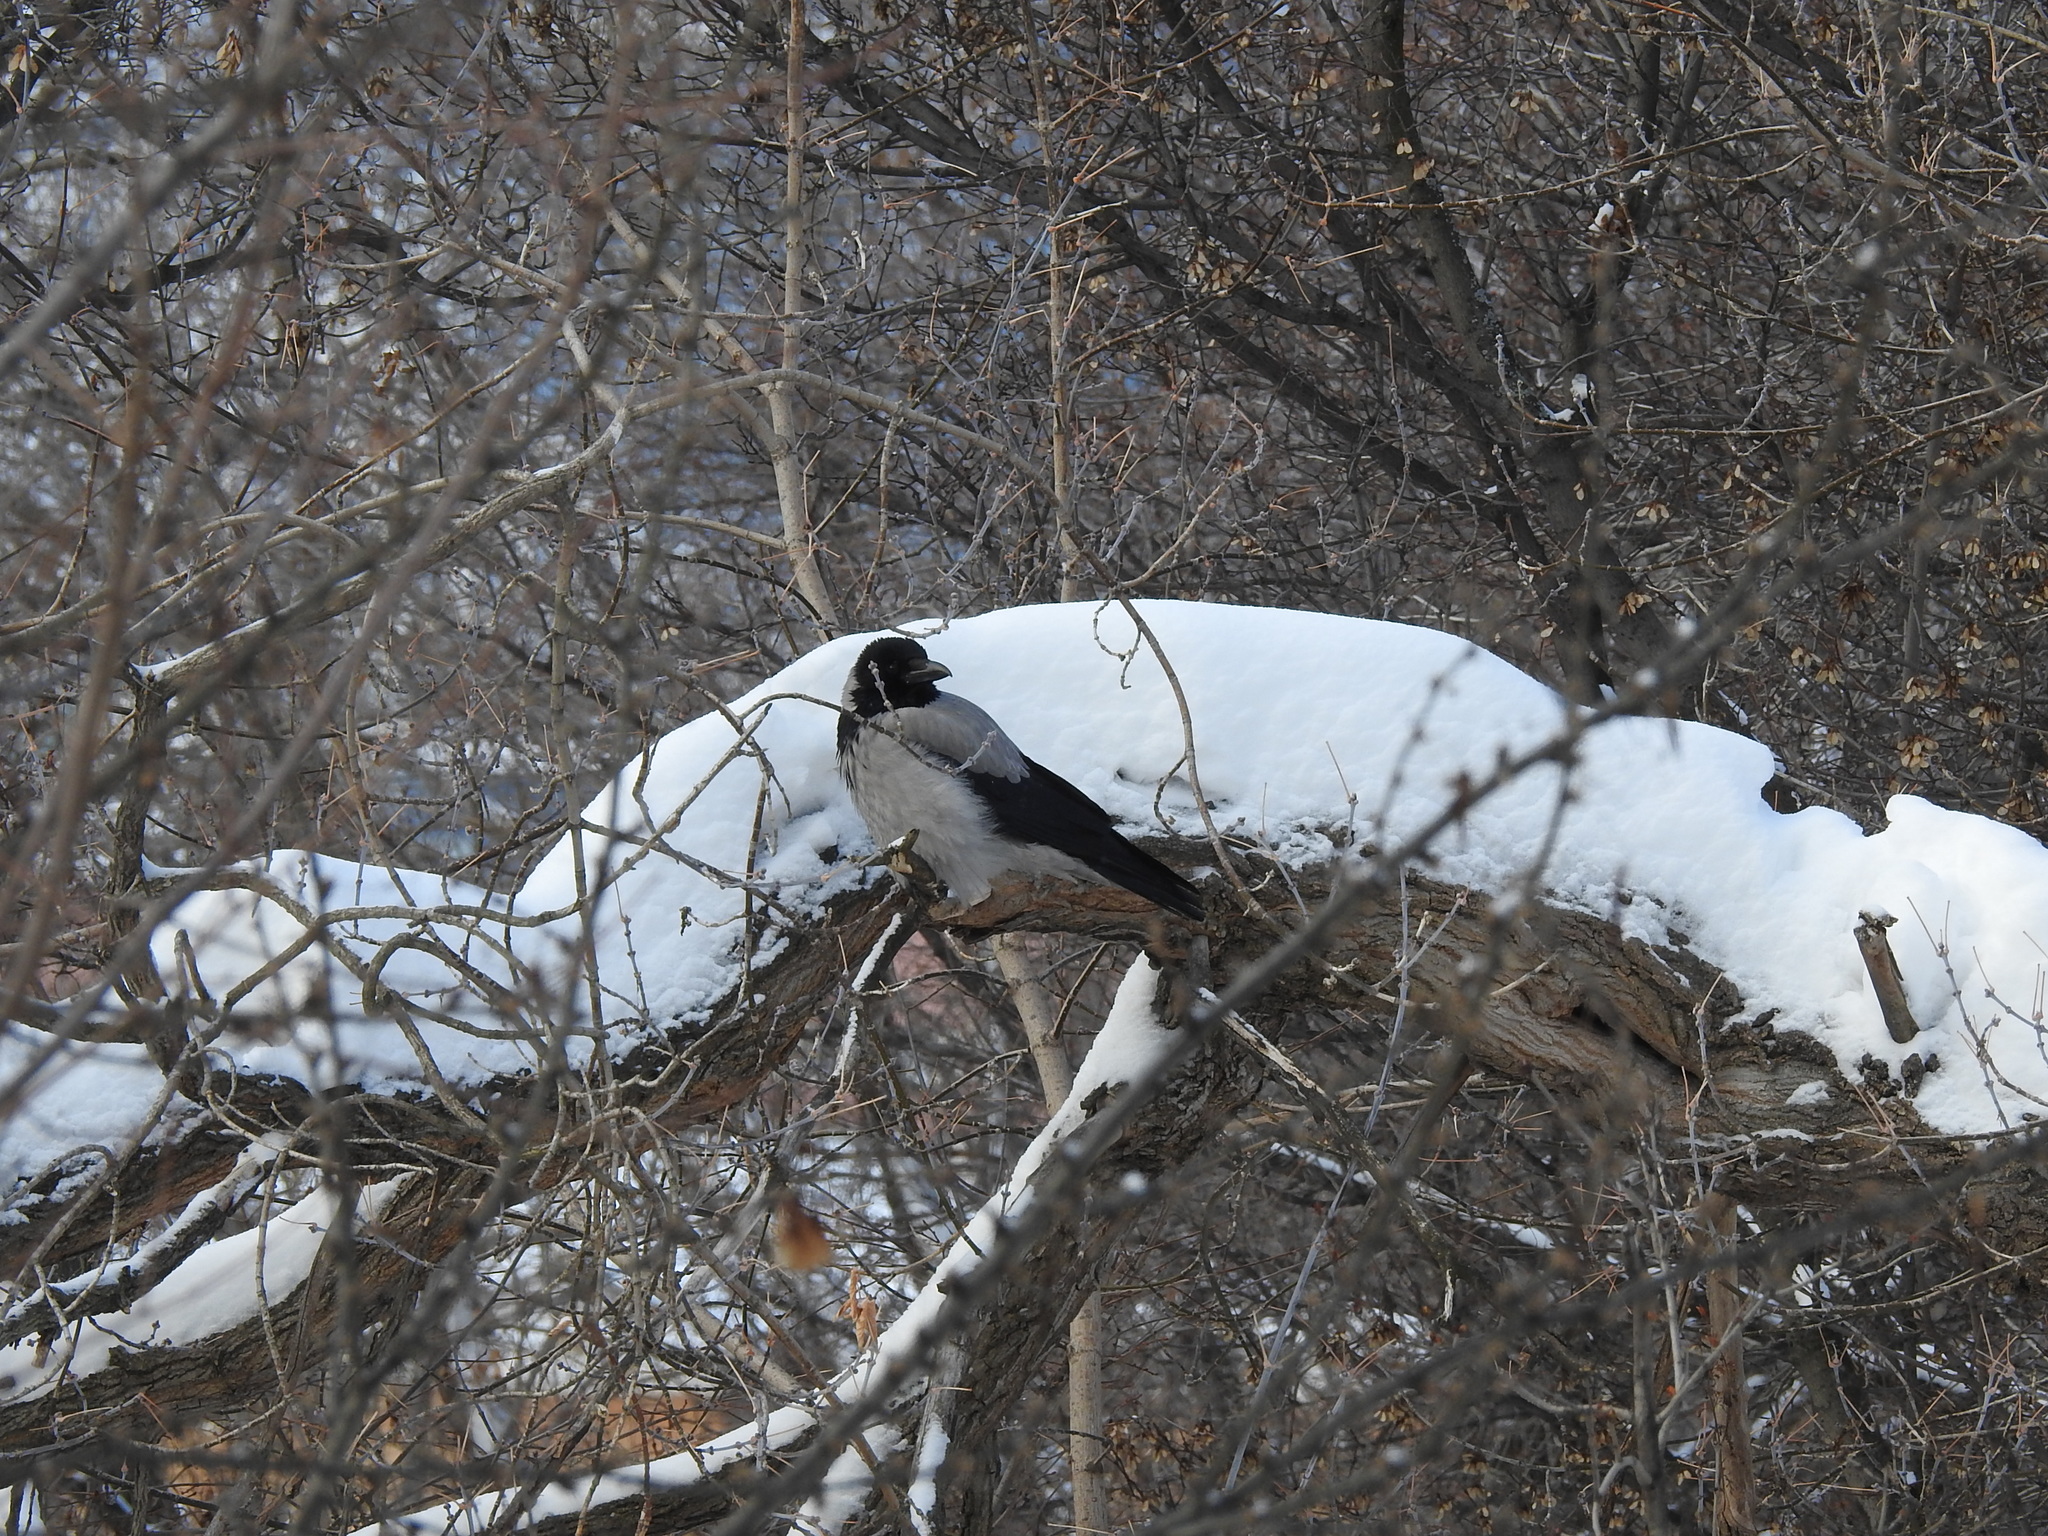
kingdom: Animalia
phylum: Chordata
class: Aves
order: Passeriformes
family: Corvidae
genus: Corvus
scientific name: Corvus cornix
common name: Hooded crow
